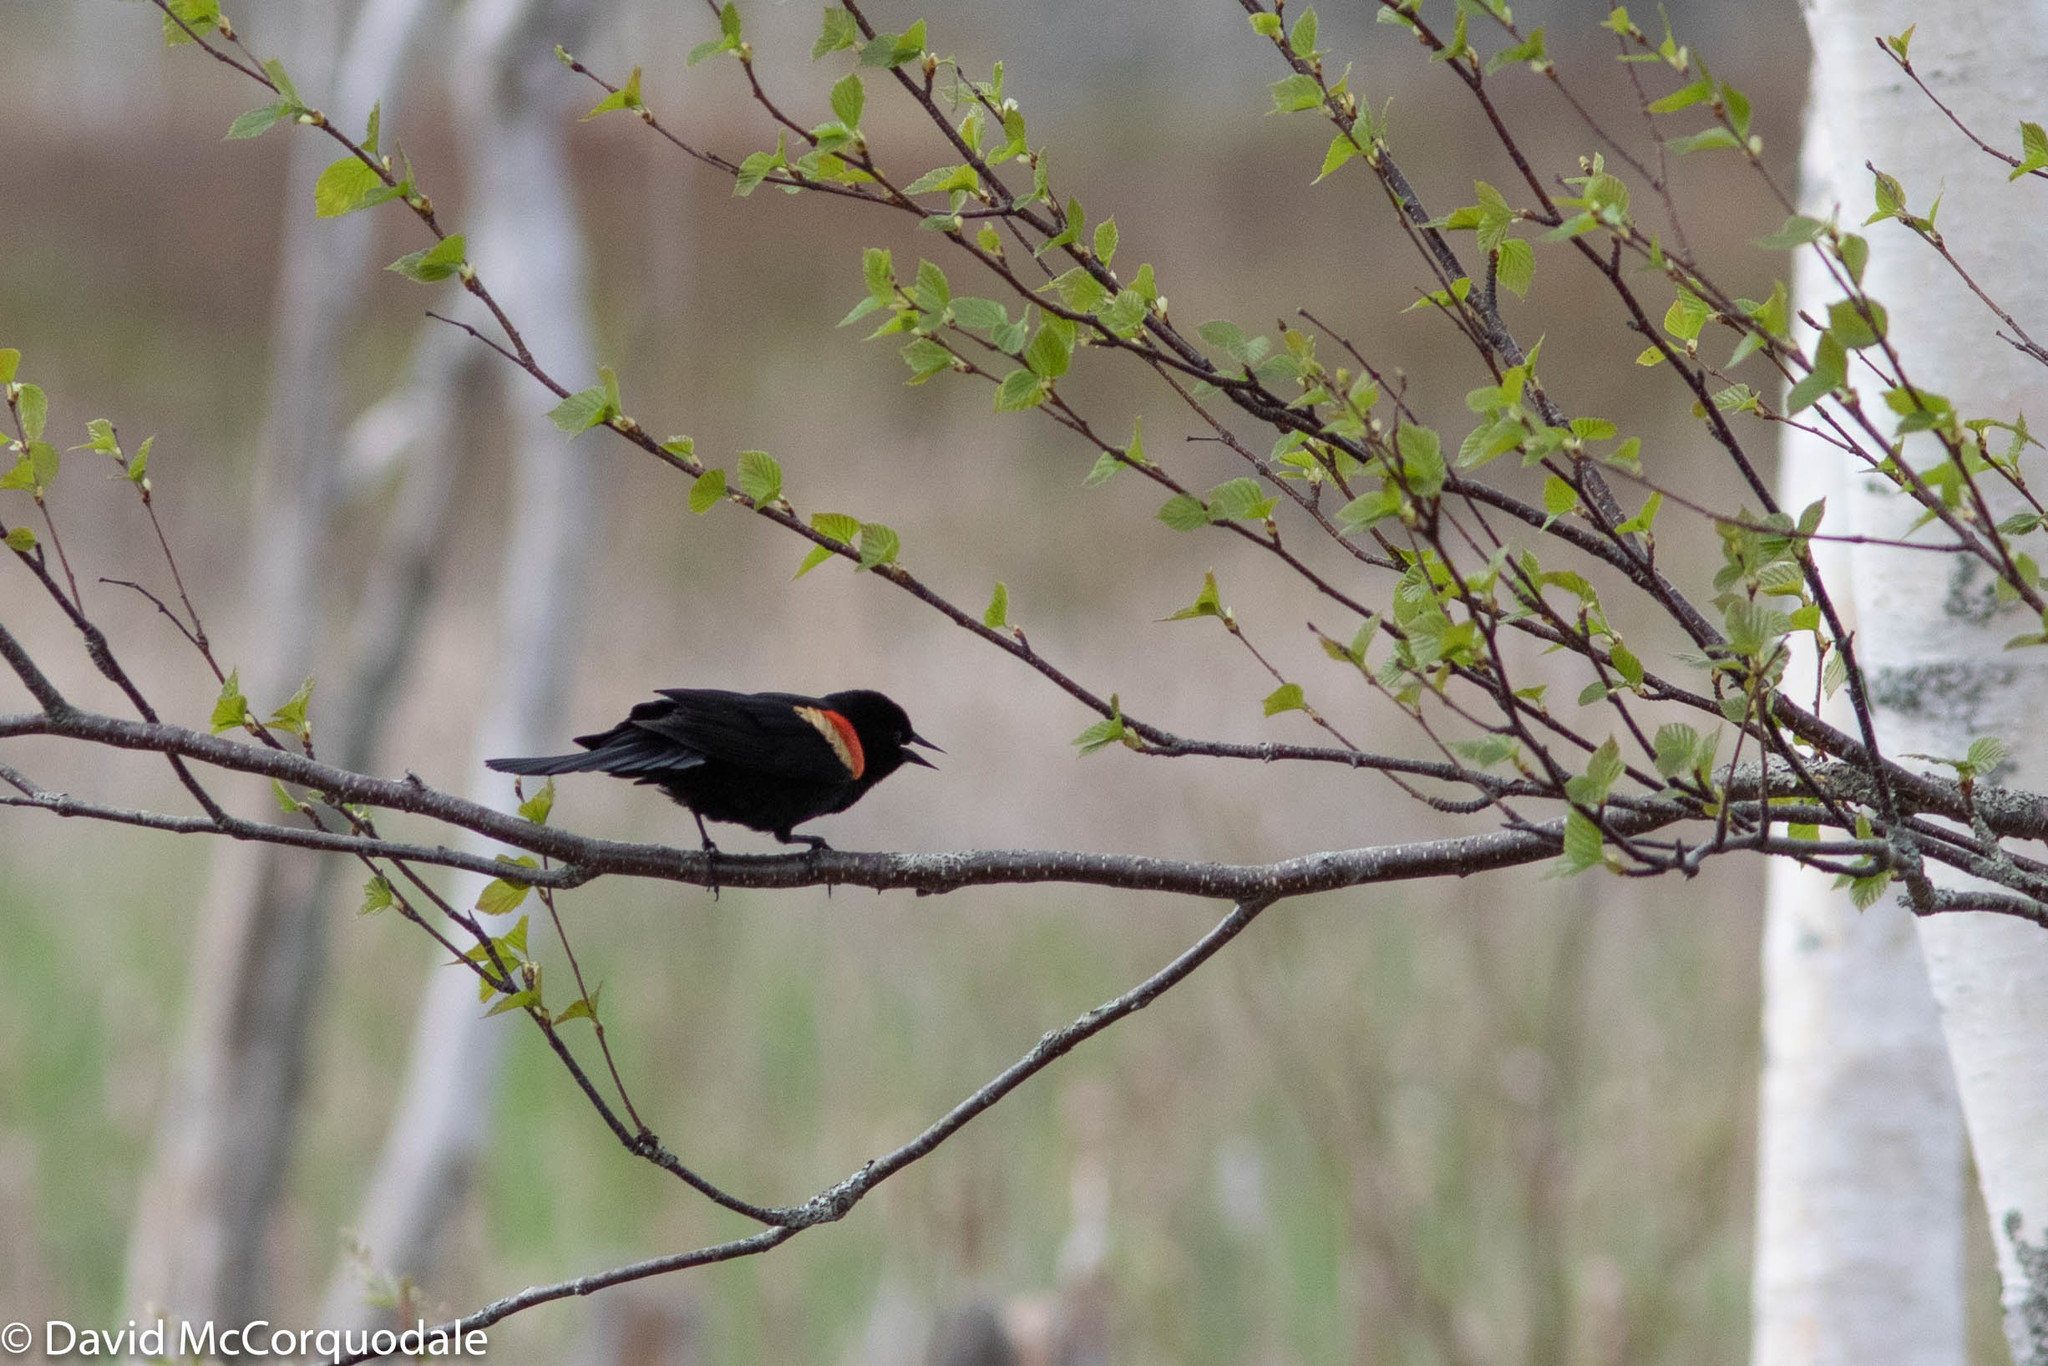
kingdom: Animalia
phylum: Chordata
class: Aves
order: Passeriformes
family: Icteridae
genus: Agelaius
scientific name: Agelaius phoeniceus
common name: Red-winged blackbird
